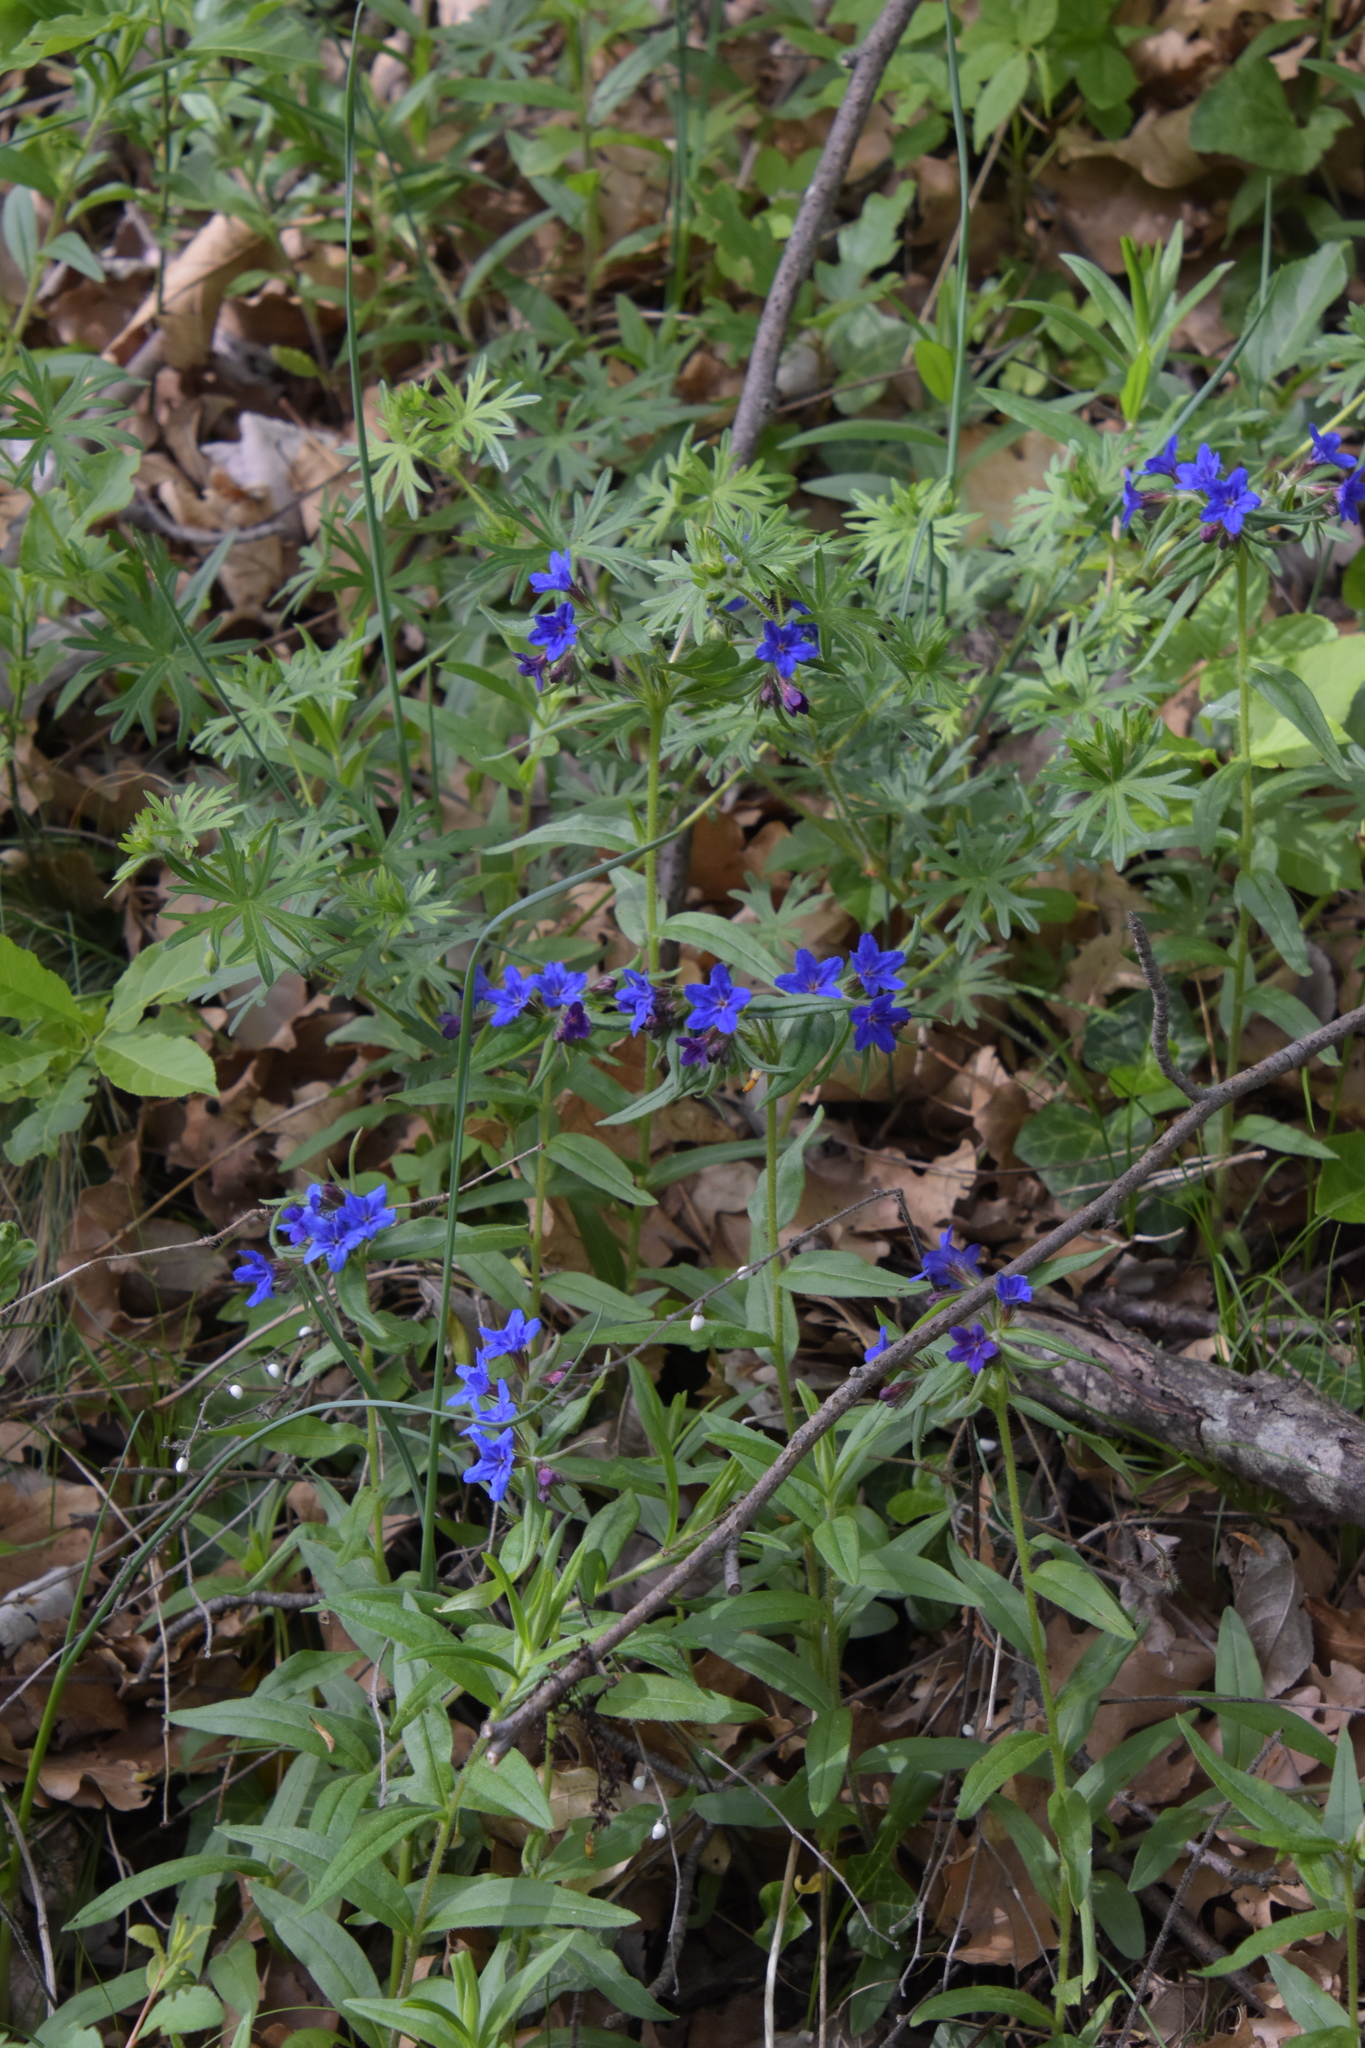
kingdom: Plantae
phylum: Tracheophyta
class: Magnoliopsida
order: Boraginales
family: Boraginaceae
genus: Aegonychon
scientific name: Aegonychon purpurocaeruleum
